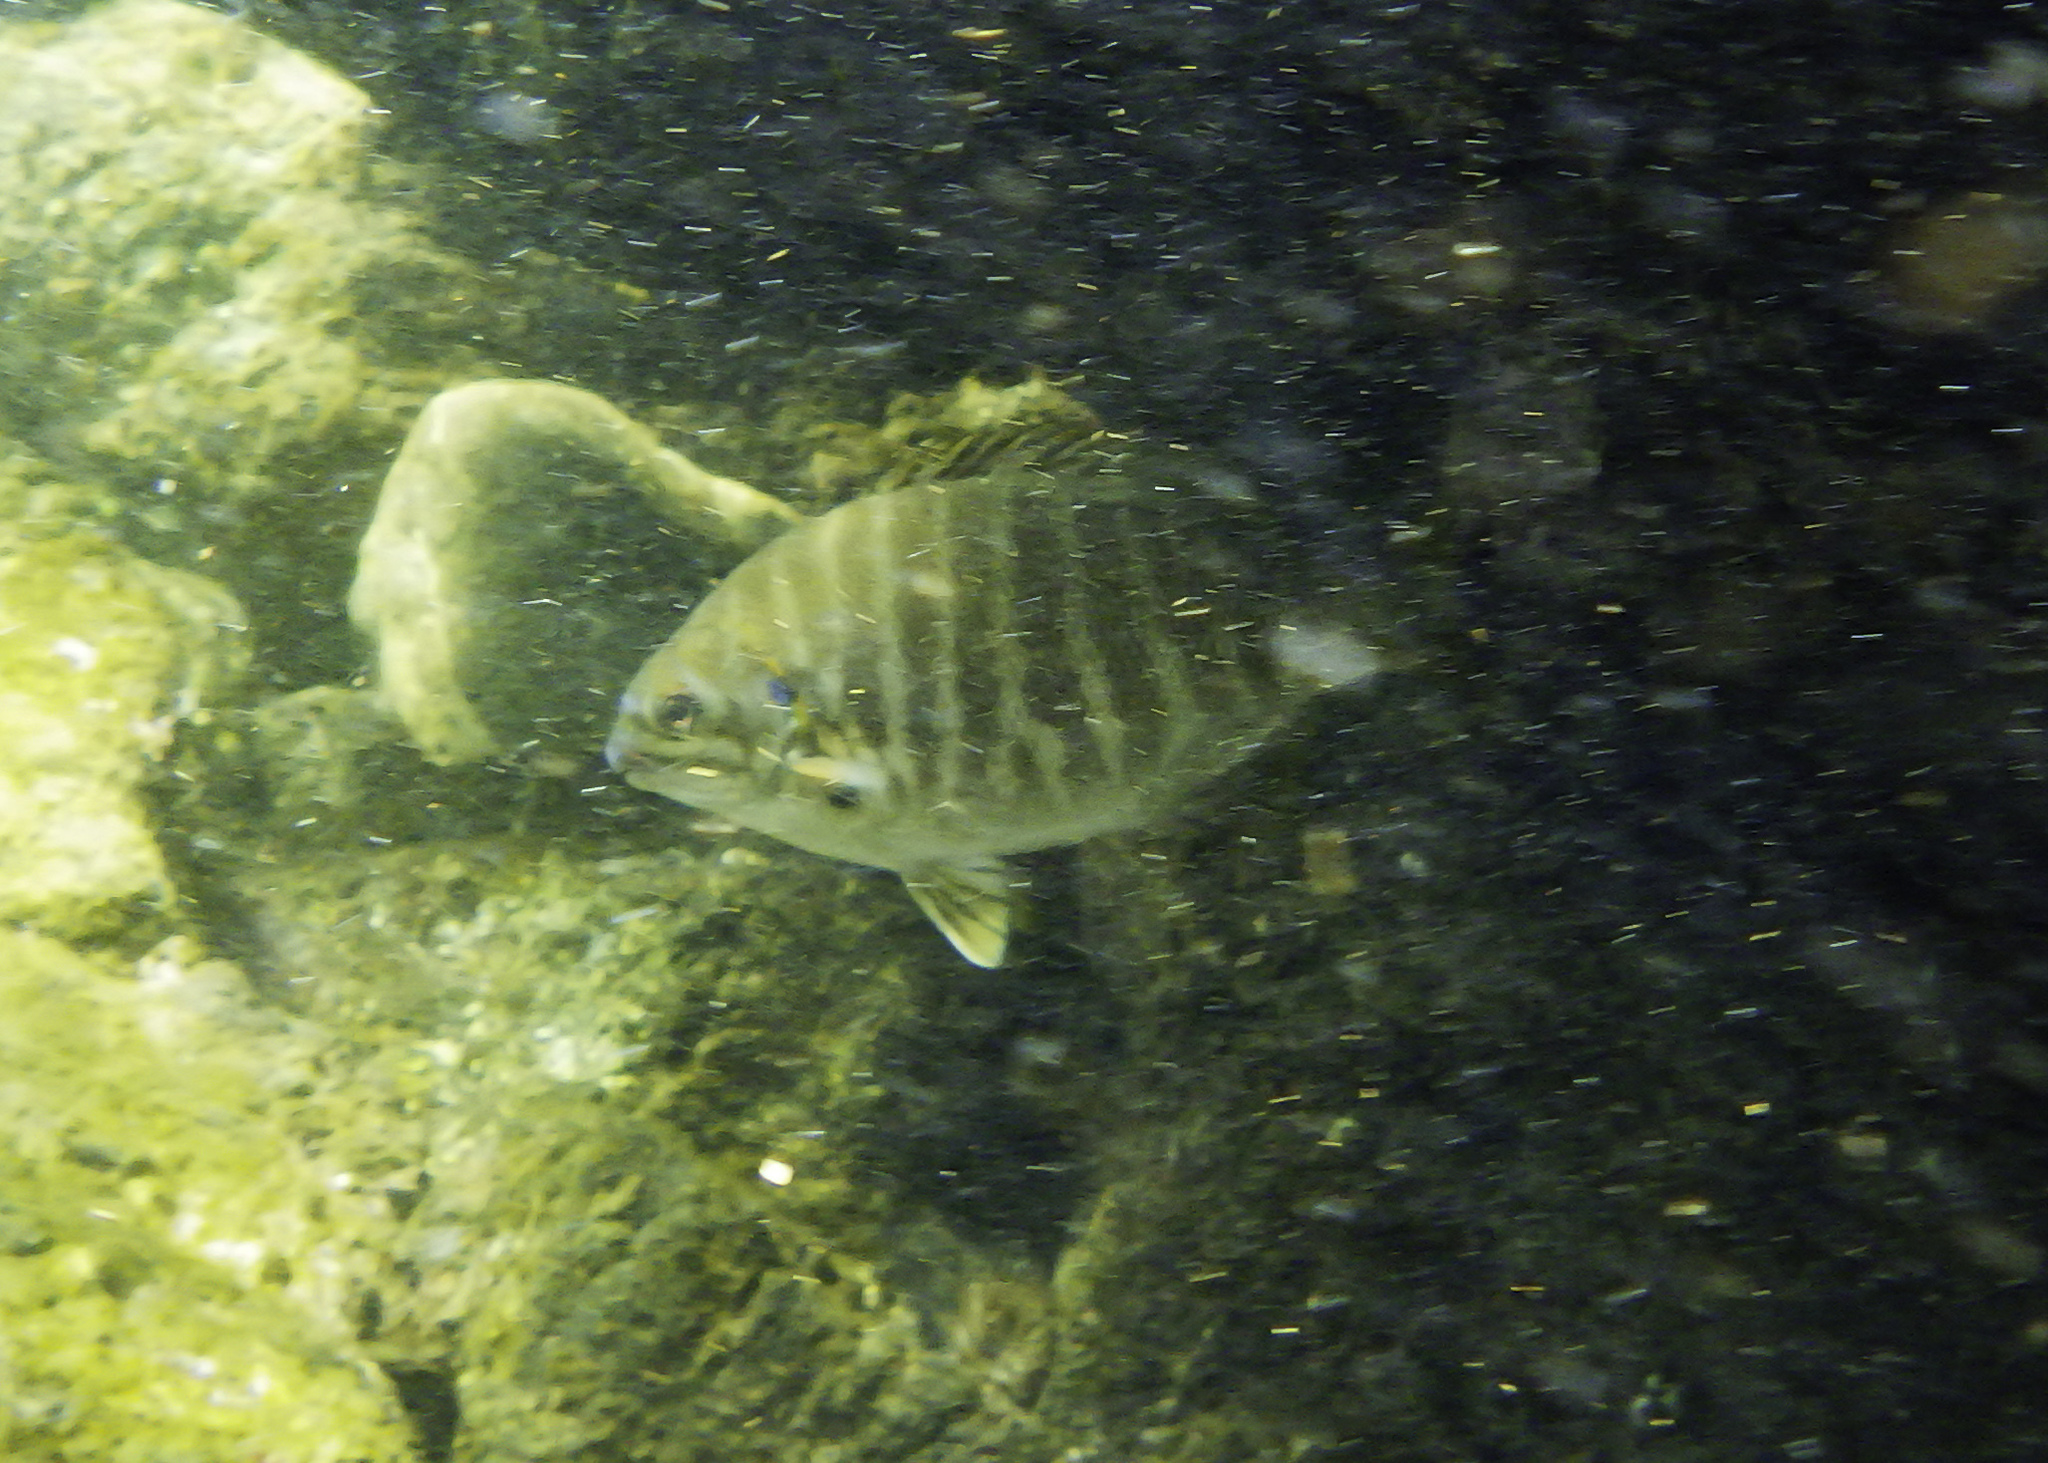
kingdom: Animalia
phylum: Chordata
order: Perciformes
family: Kyphosidae
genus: Kyphosus
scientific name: Kyphosus azureus
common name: Perch
